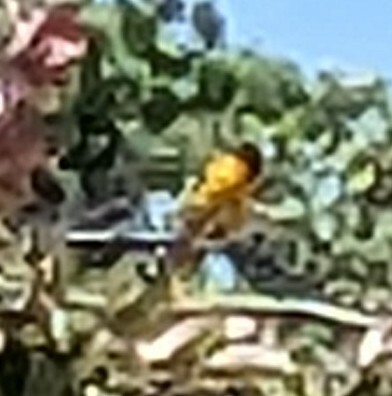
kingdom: Animalia
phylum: Chordata
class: Aves
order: Passeriformes
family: Icteridae
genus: Icterus
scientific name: Icterus galbula
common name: Baltimore oriole
